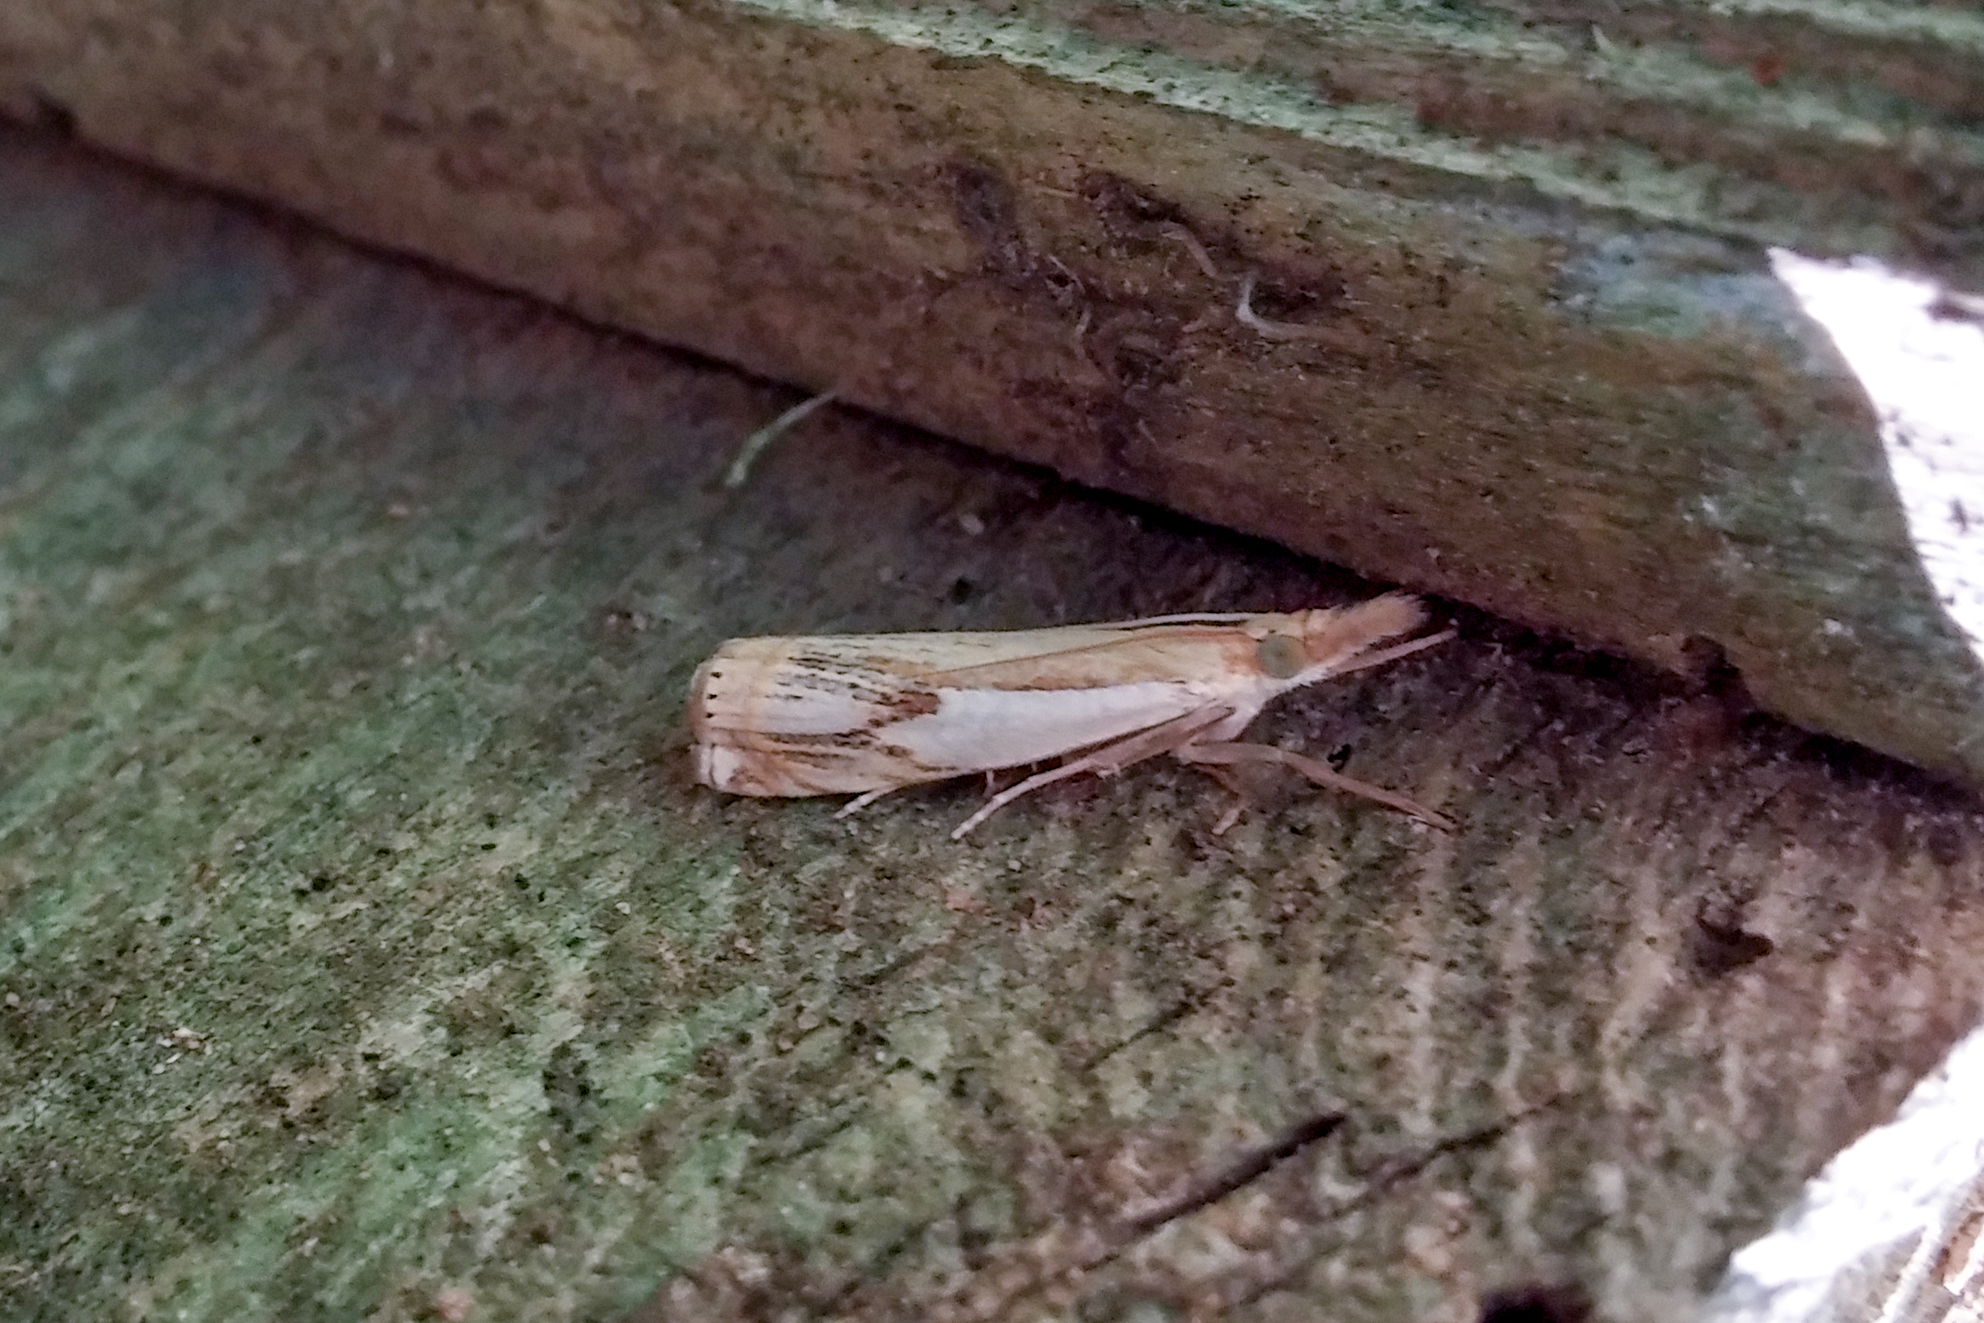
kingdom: Animalia
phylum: Arthropoda
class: Insecta
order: Lepidoptera
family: Crambidae
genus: Crambus
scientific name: Crambus agitatellus
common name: Double-banded grass-veneer
